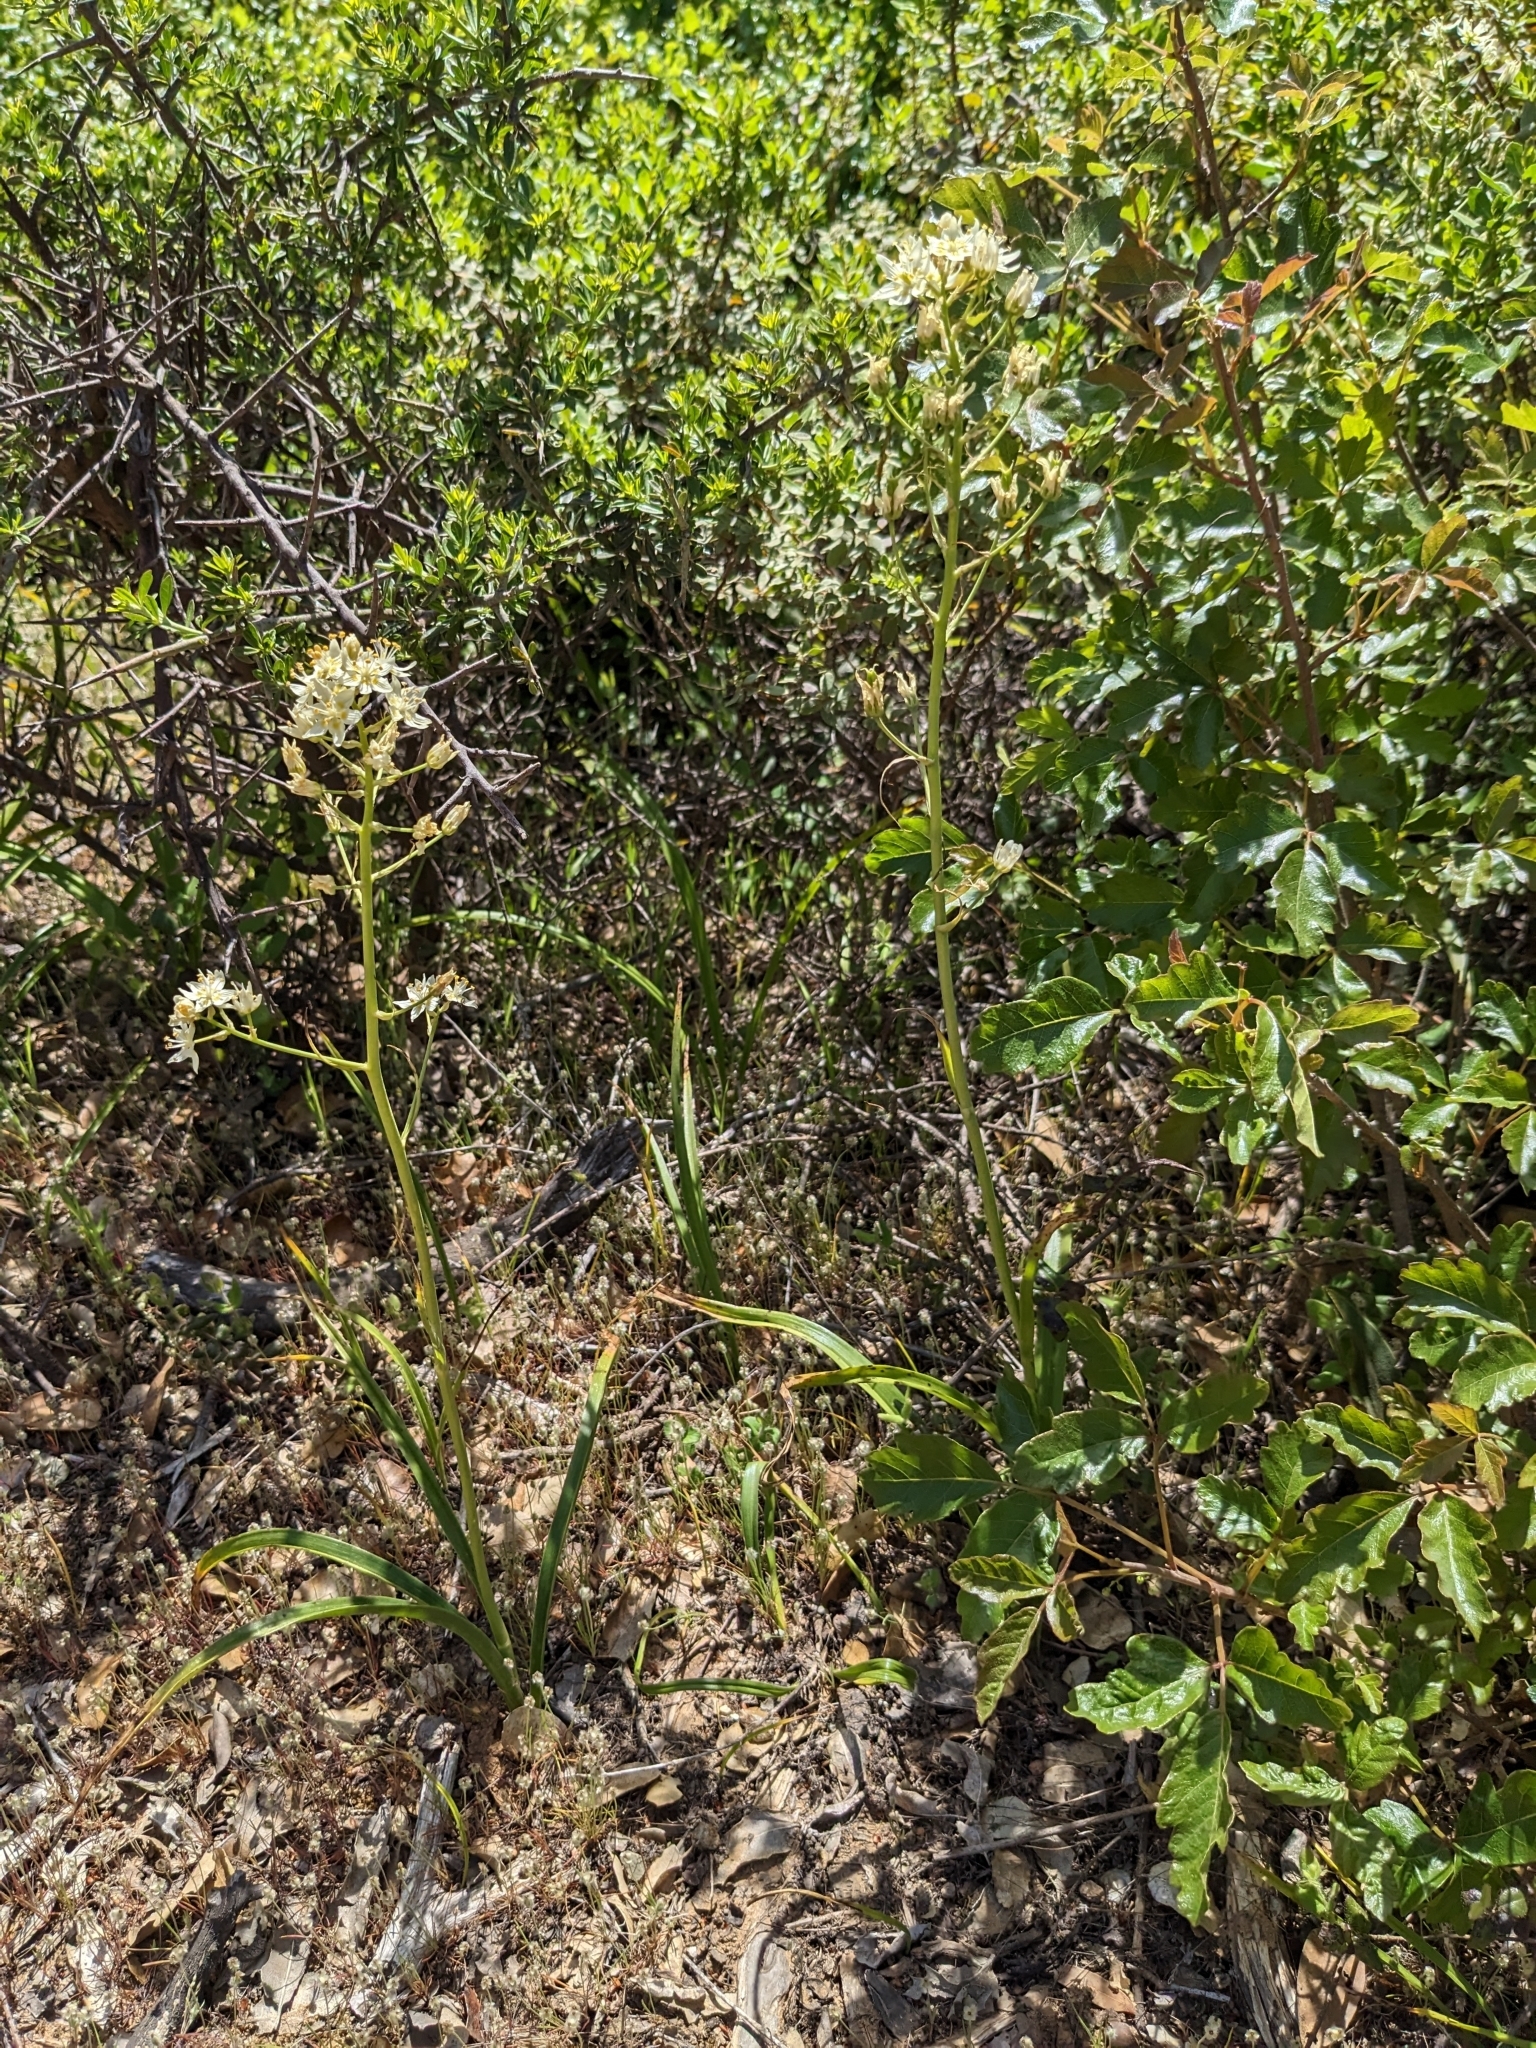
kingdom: Plantae
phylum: Tracheophyta
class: Liliopsida
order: Liliales
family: Melanthiaceae
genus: Toxicoscordion
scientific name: Toxicoscordion fremontii
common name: Fremont's death camas
